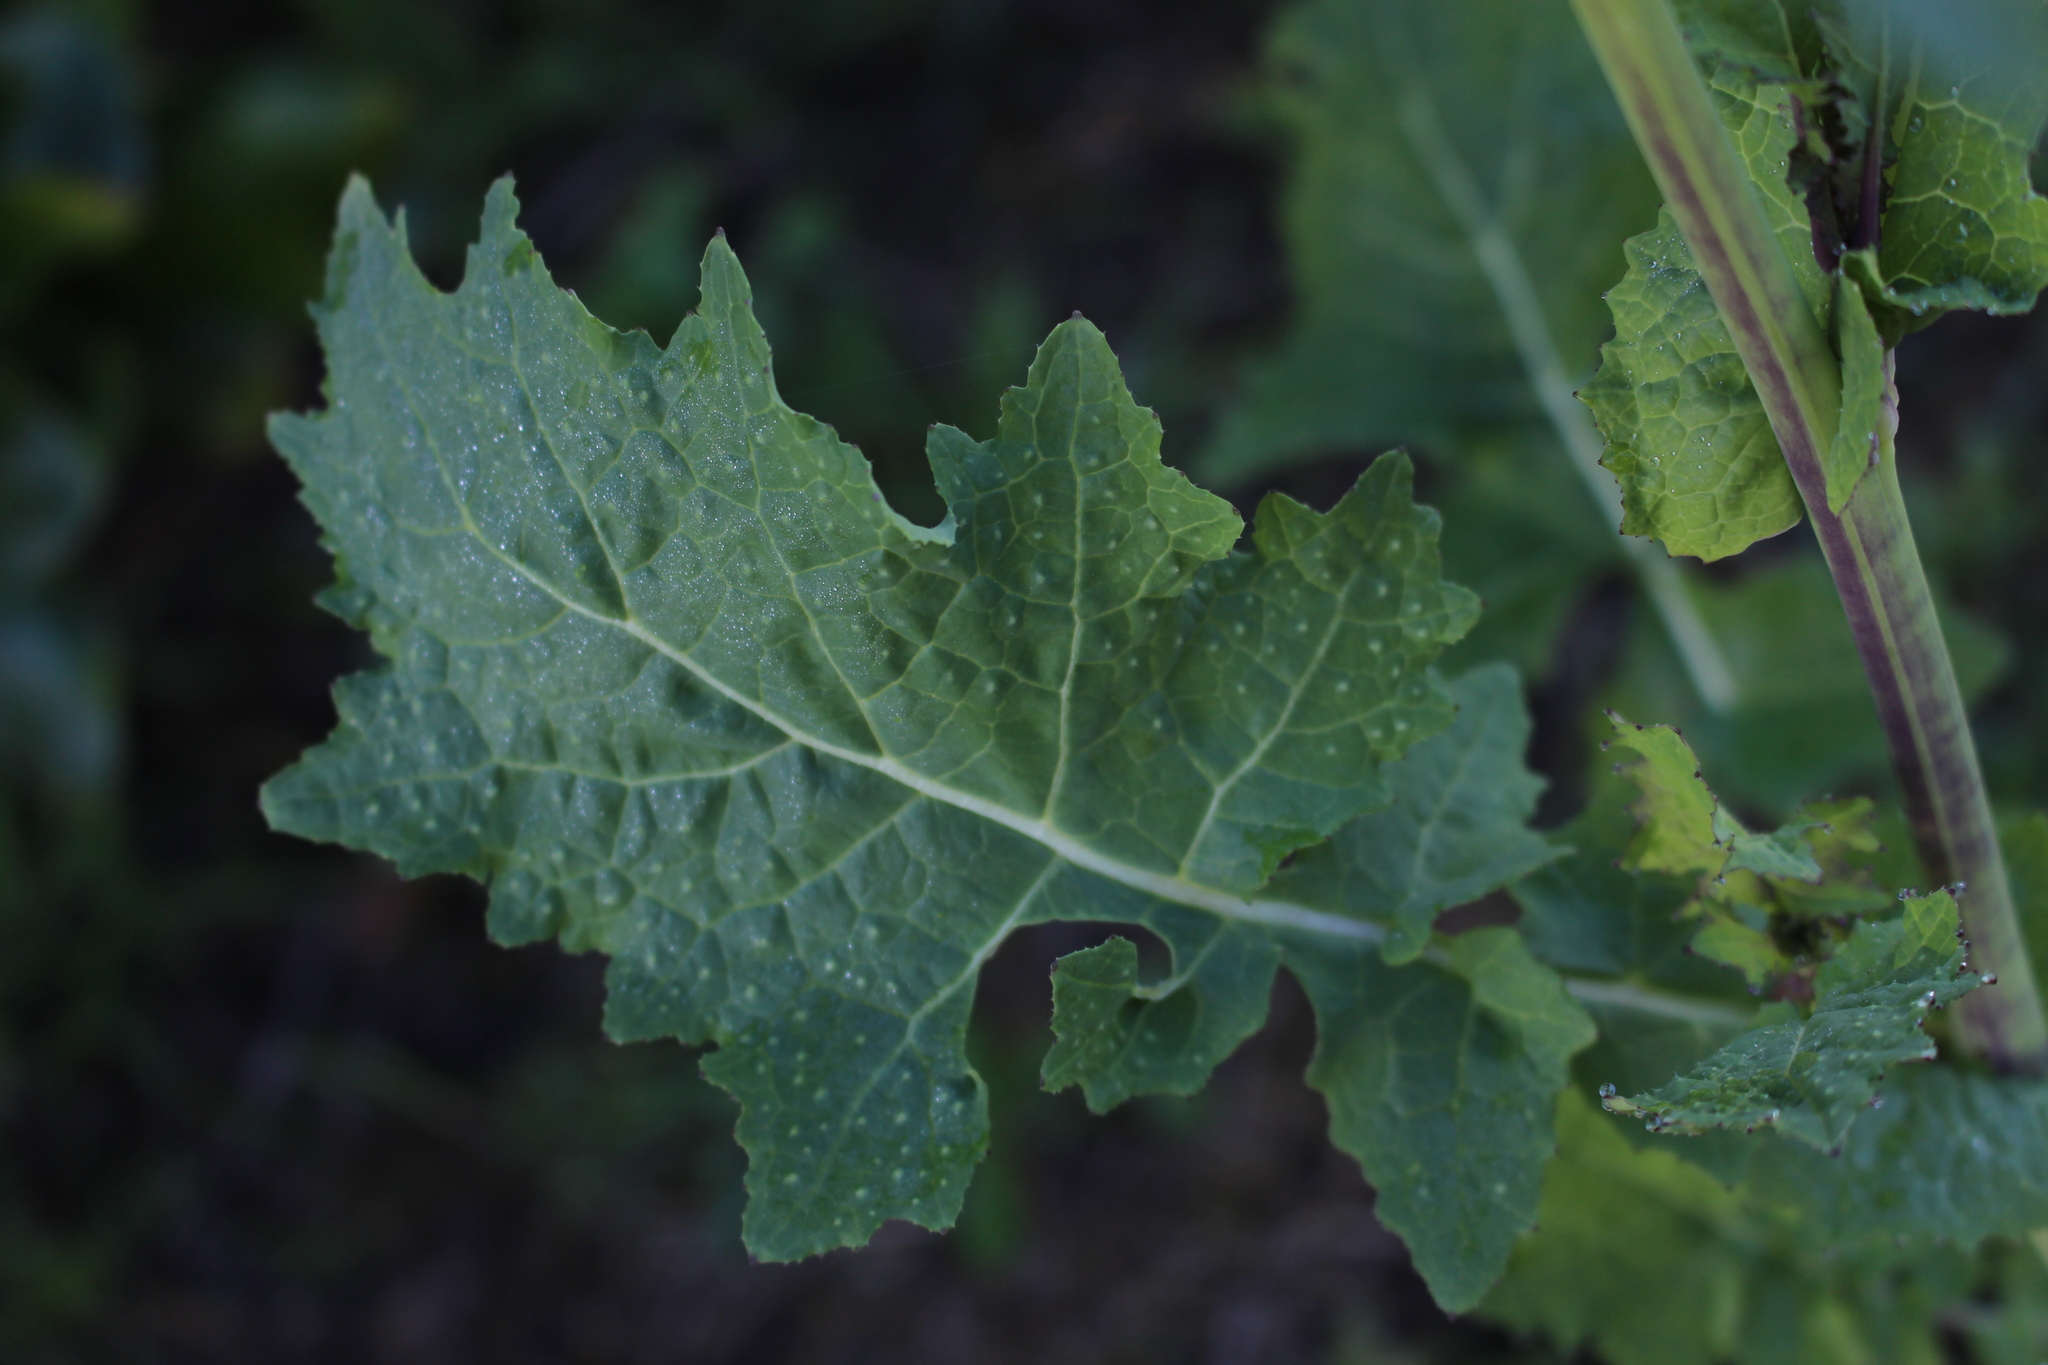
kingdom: Plantae
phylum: Tracheophyta
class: Magnoliopsida
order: Brassicales
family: Brassicaceae
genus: Brassica
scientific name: Brassica rapa
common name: Field mustard
